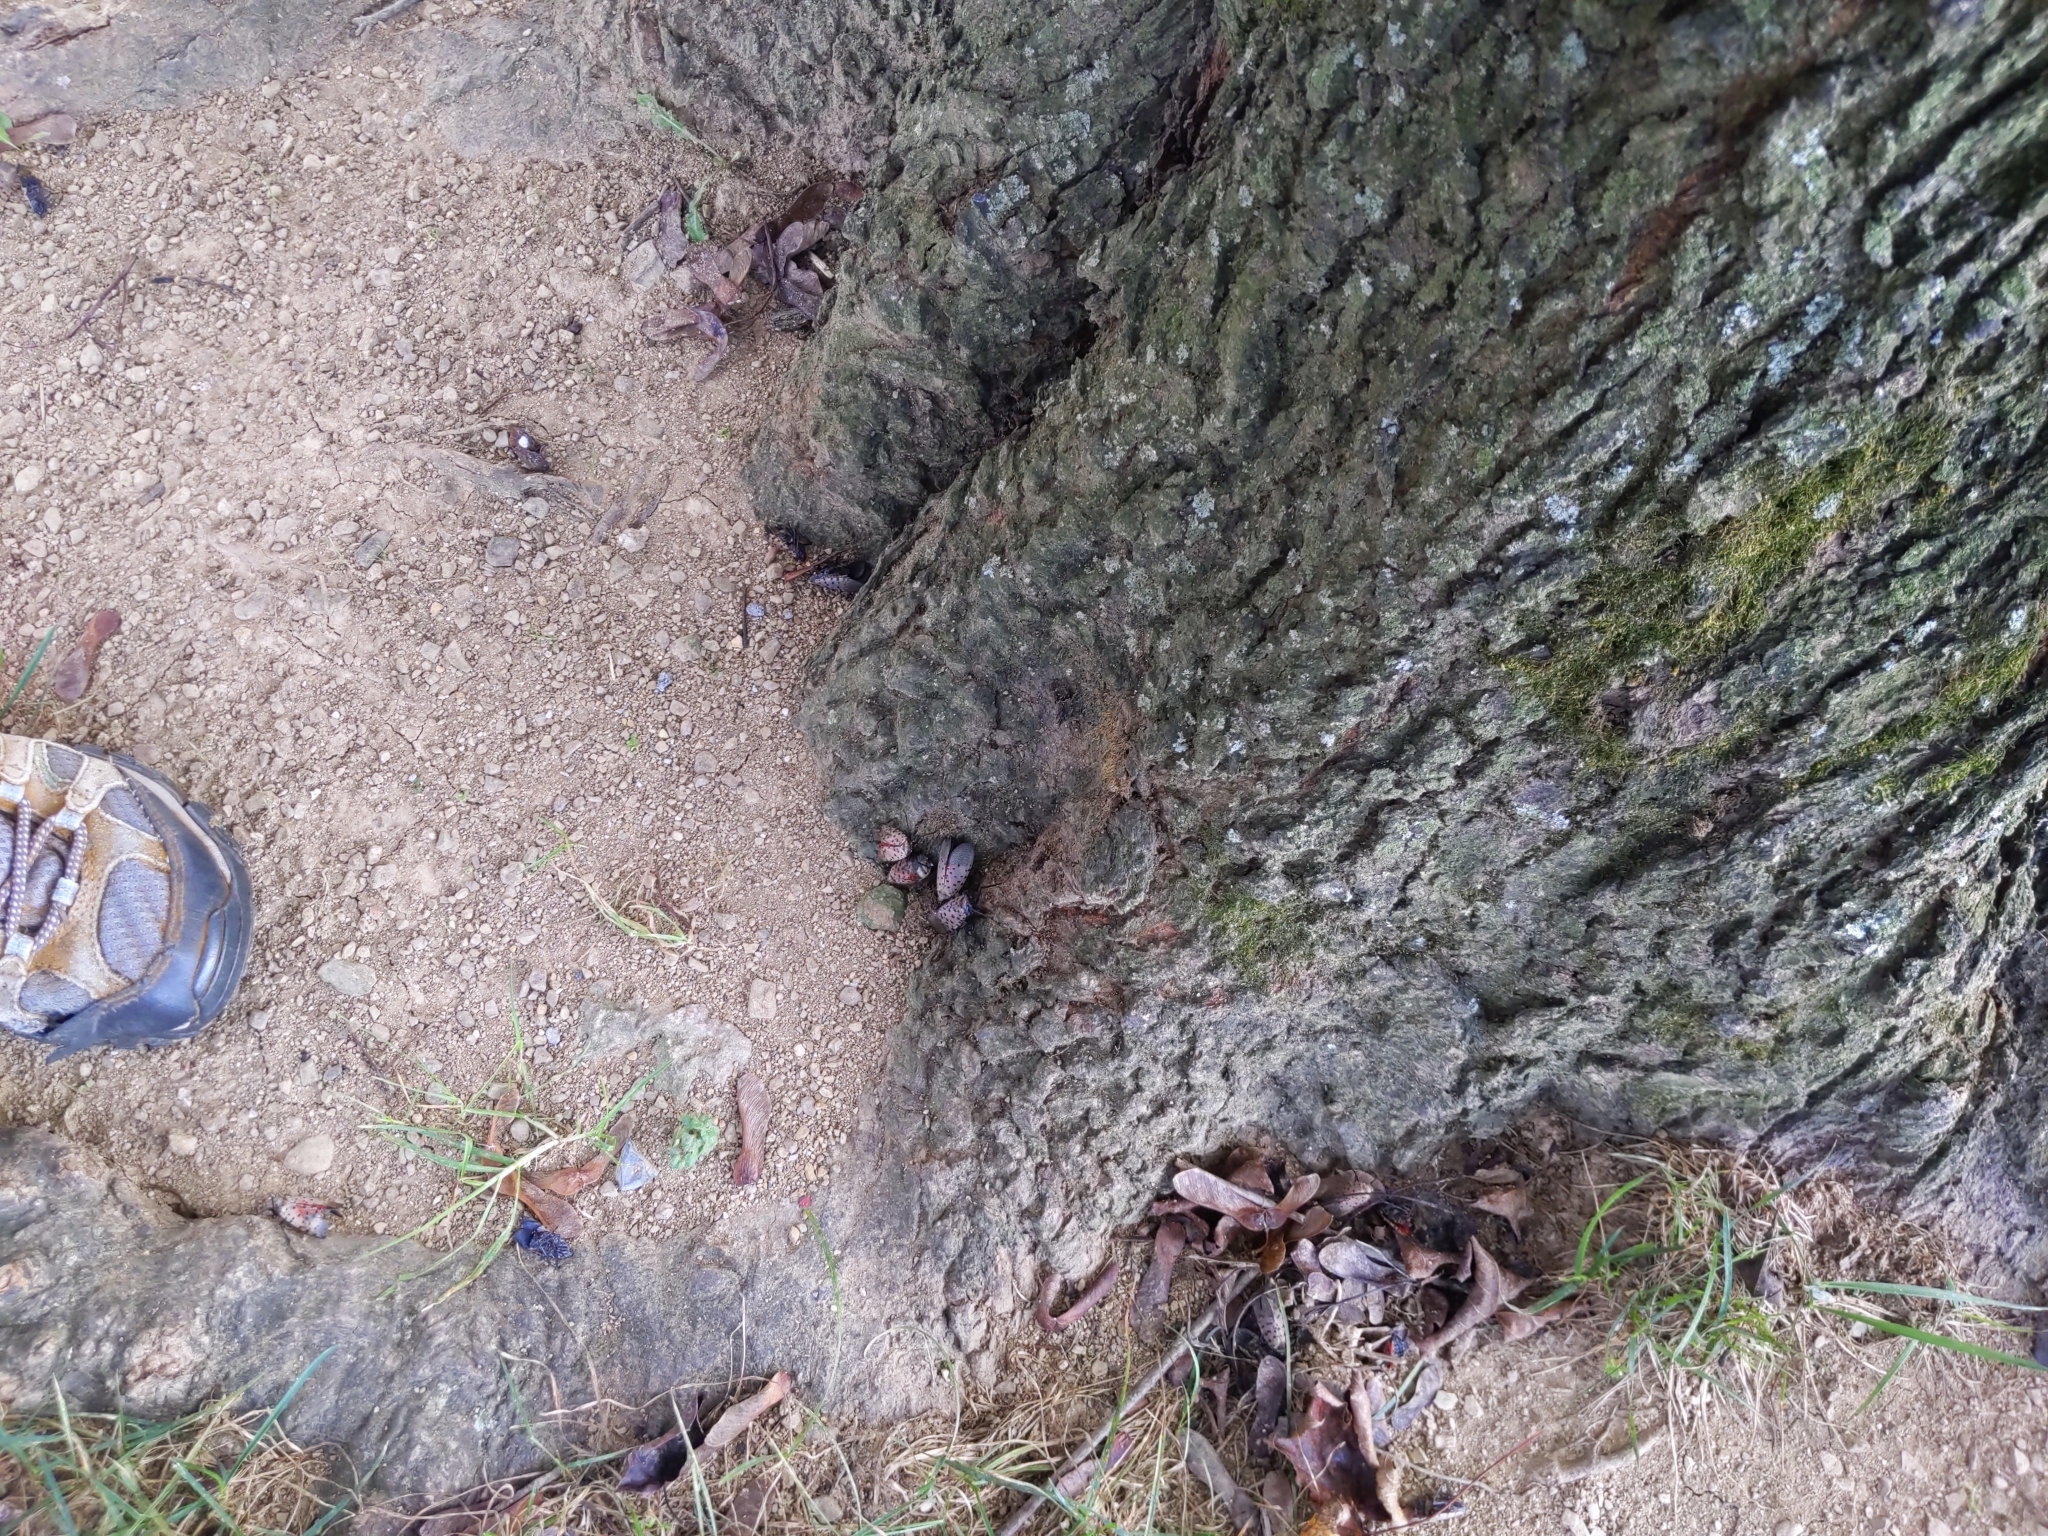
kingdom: Animalia
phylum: Arthropoda
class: Insecta
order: Hemiptera
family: Fulgoridae
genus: Lycorma
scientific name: Lycorma delicatula
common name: Spotted lanternfly
